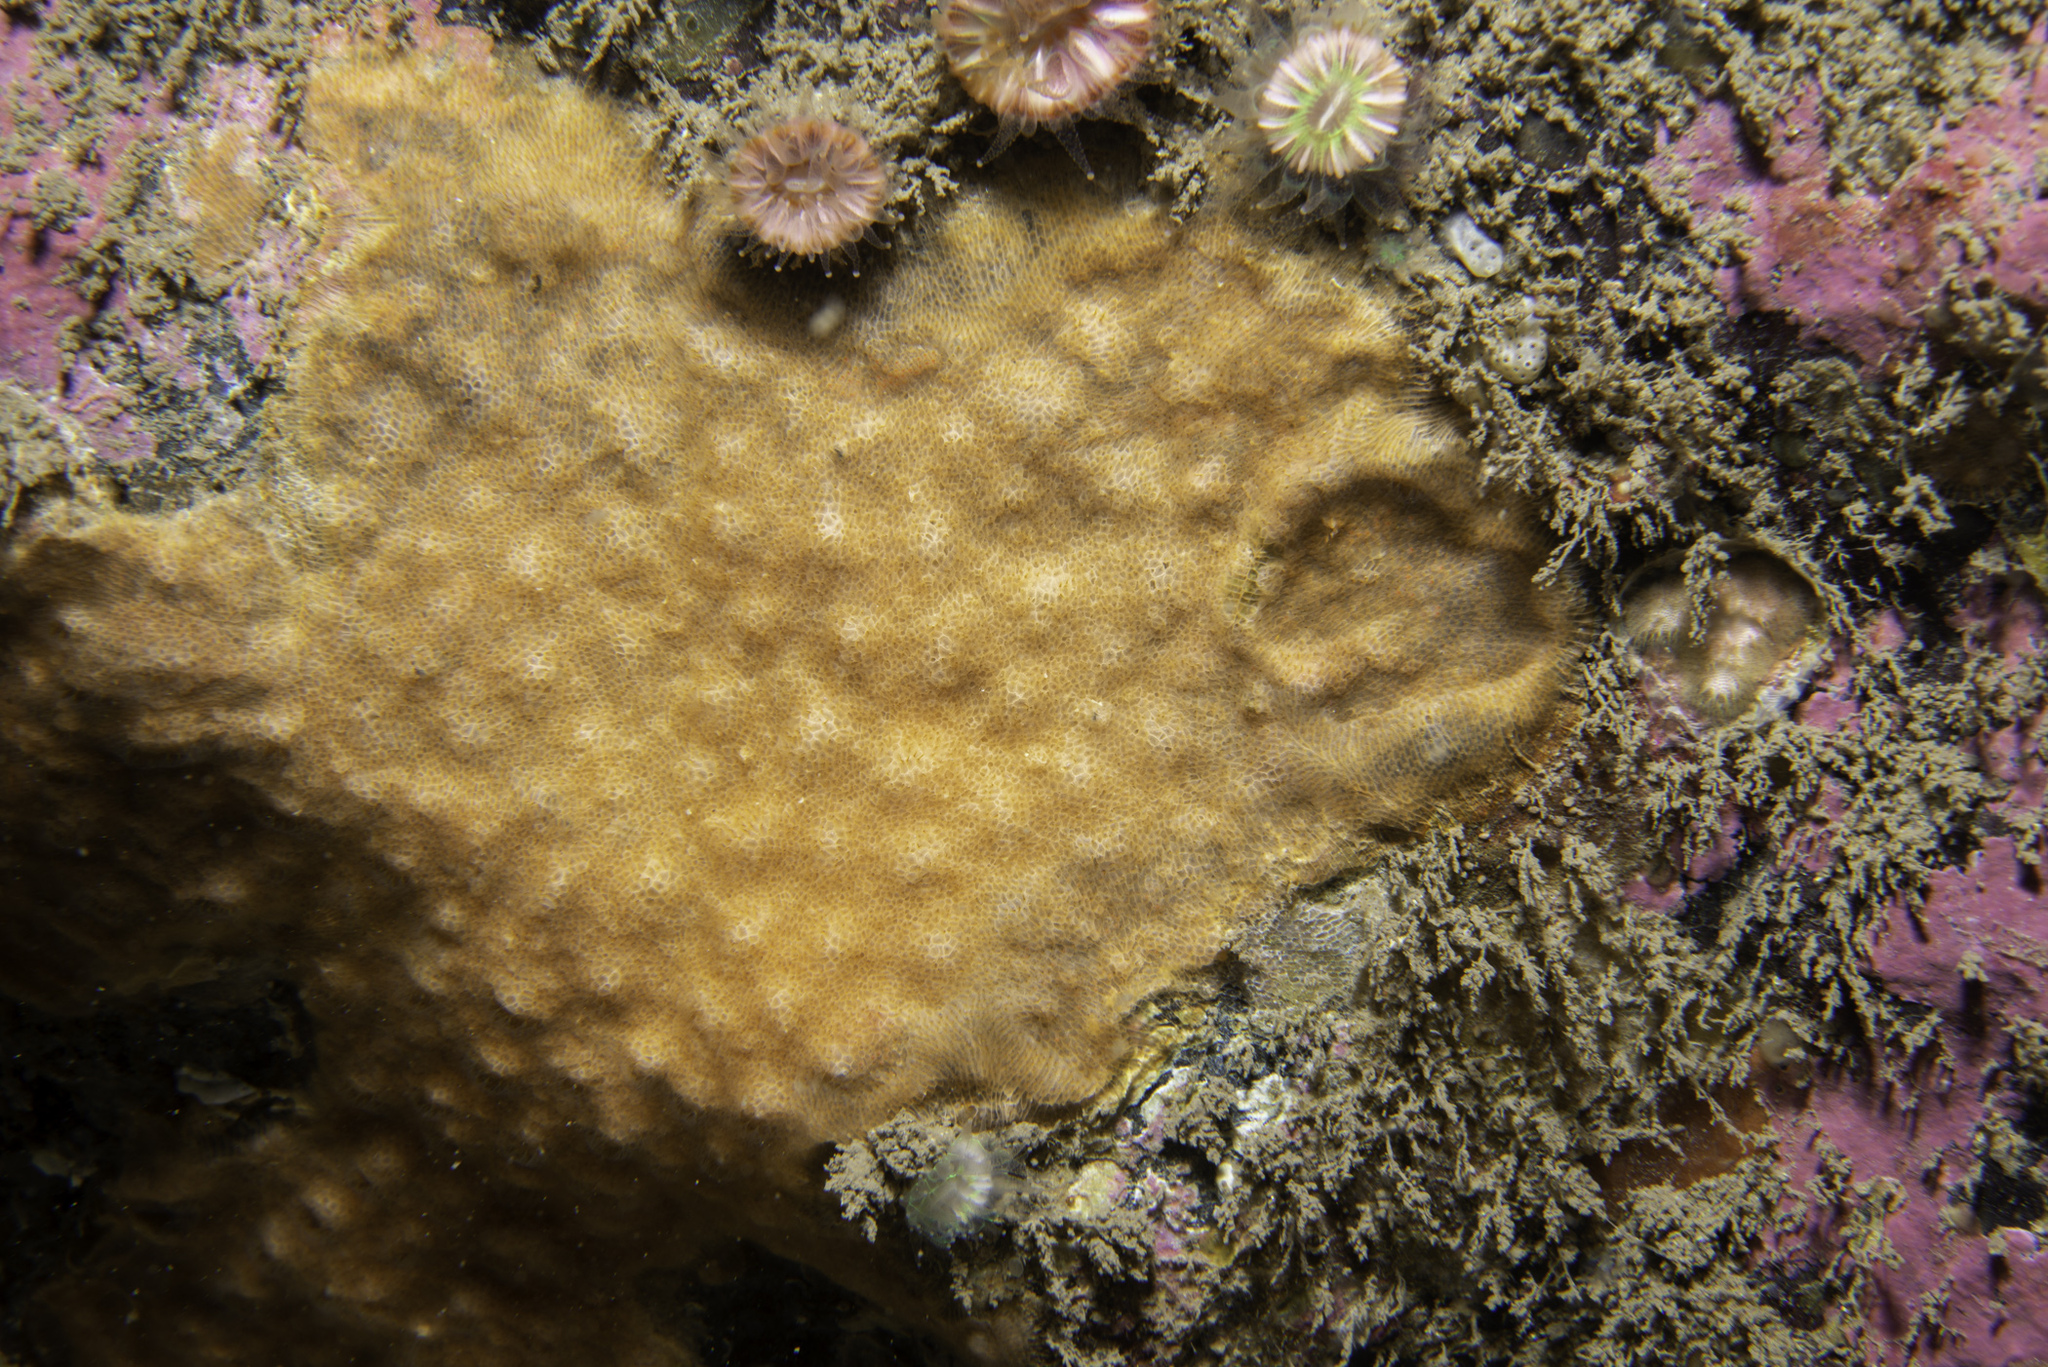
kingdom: Animalia
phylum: Bryozoa
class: Gymnolaemata
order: Cheilostomatida
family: Smittinidae
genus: Parasmittina
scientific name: Parasmittina trispinosa
